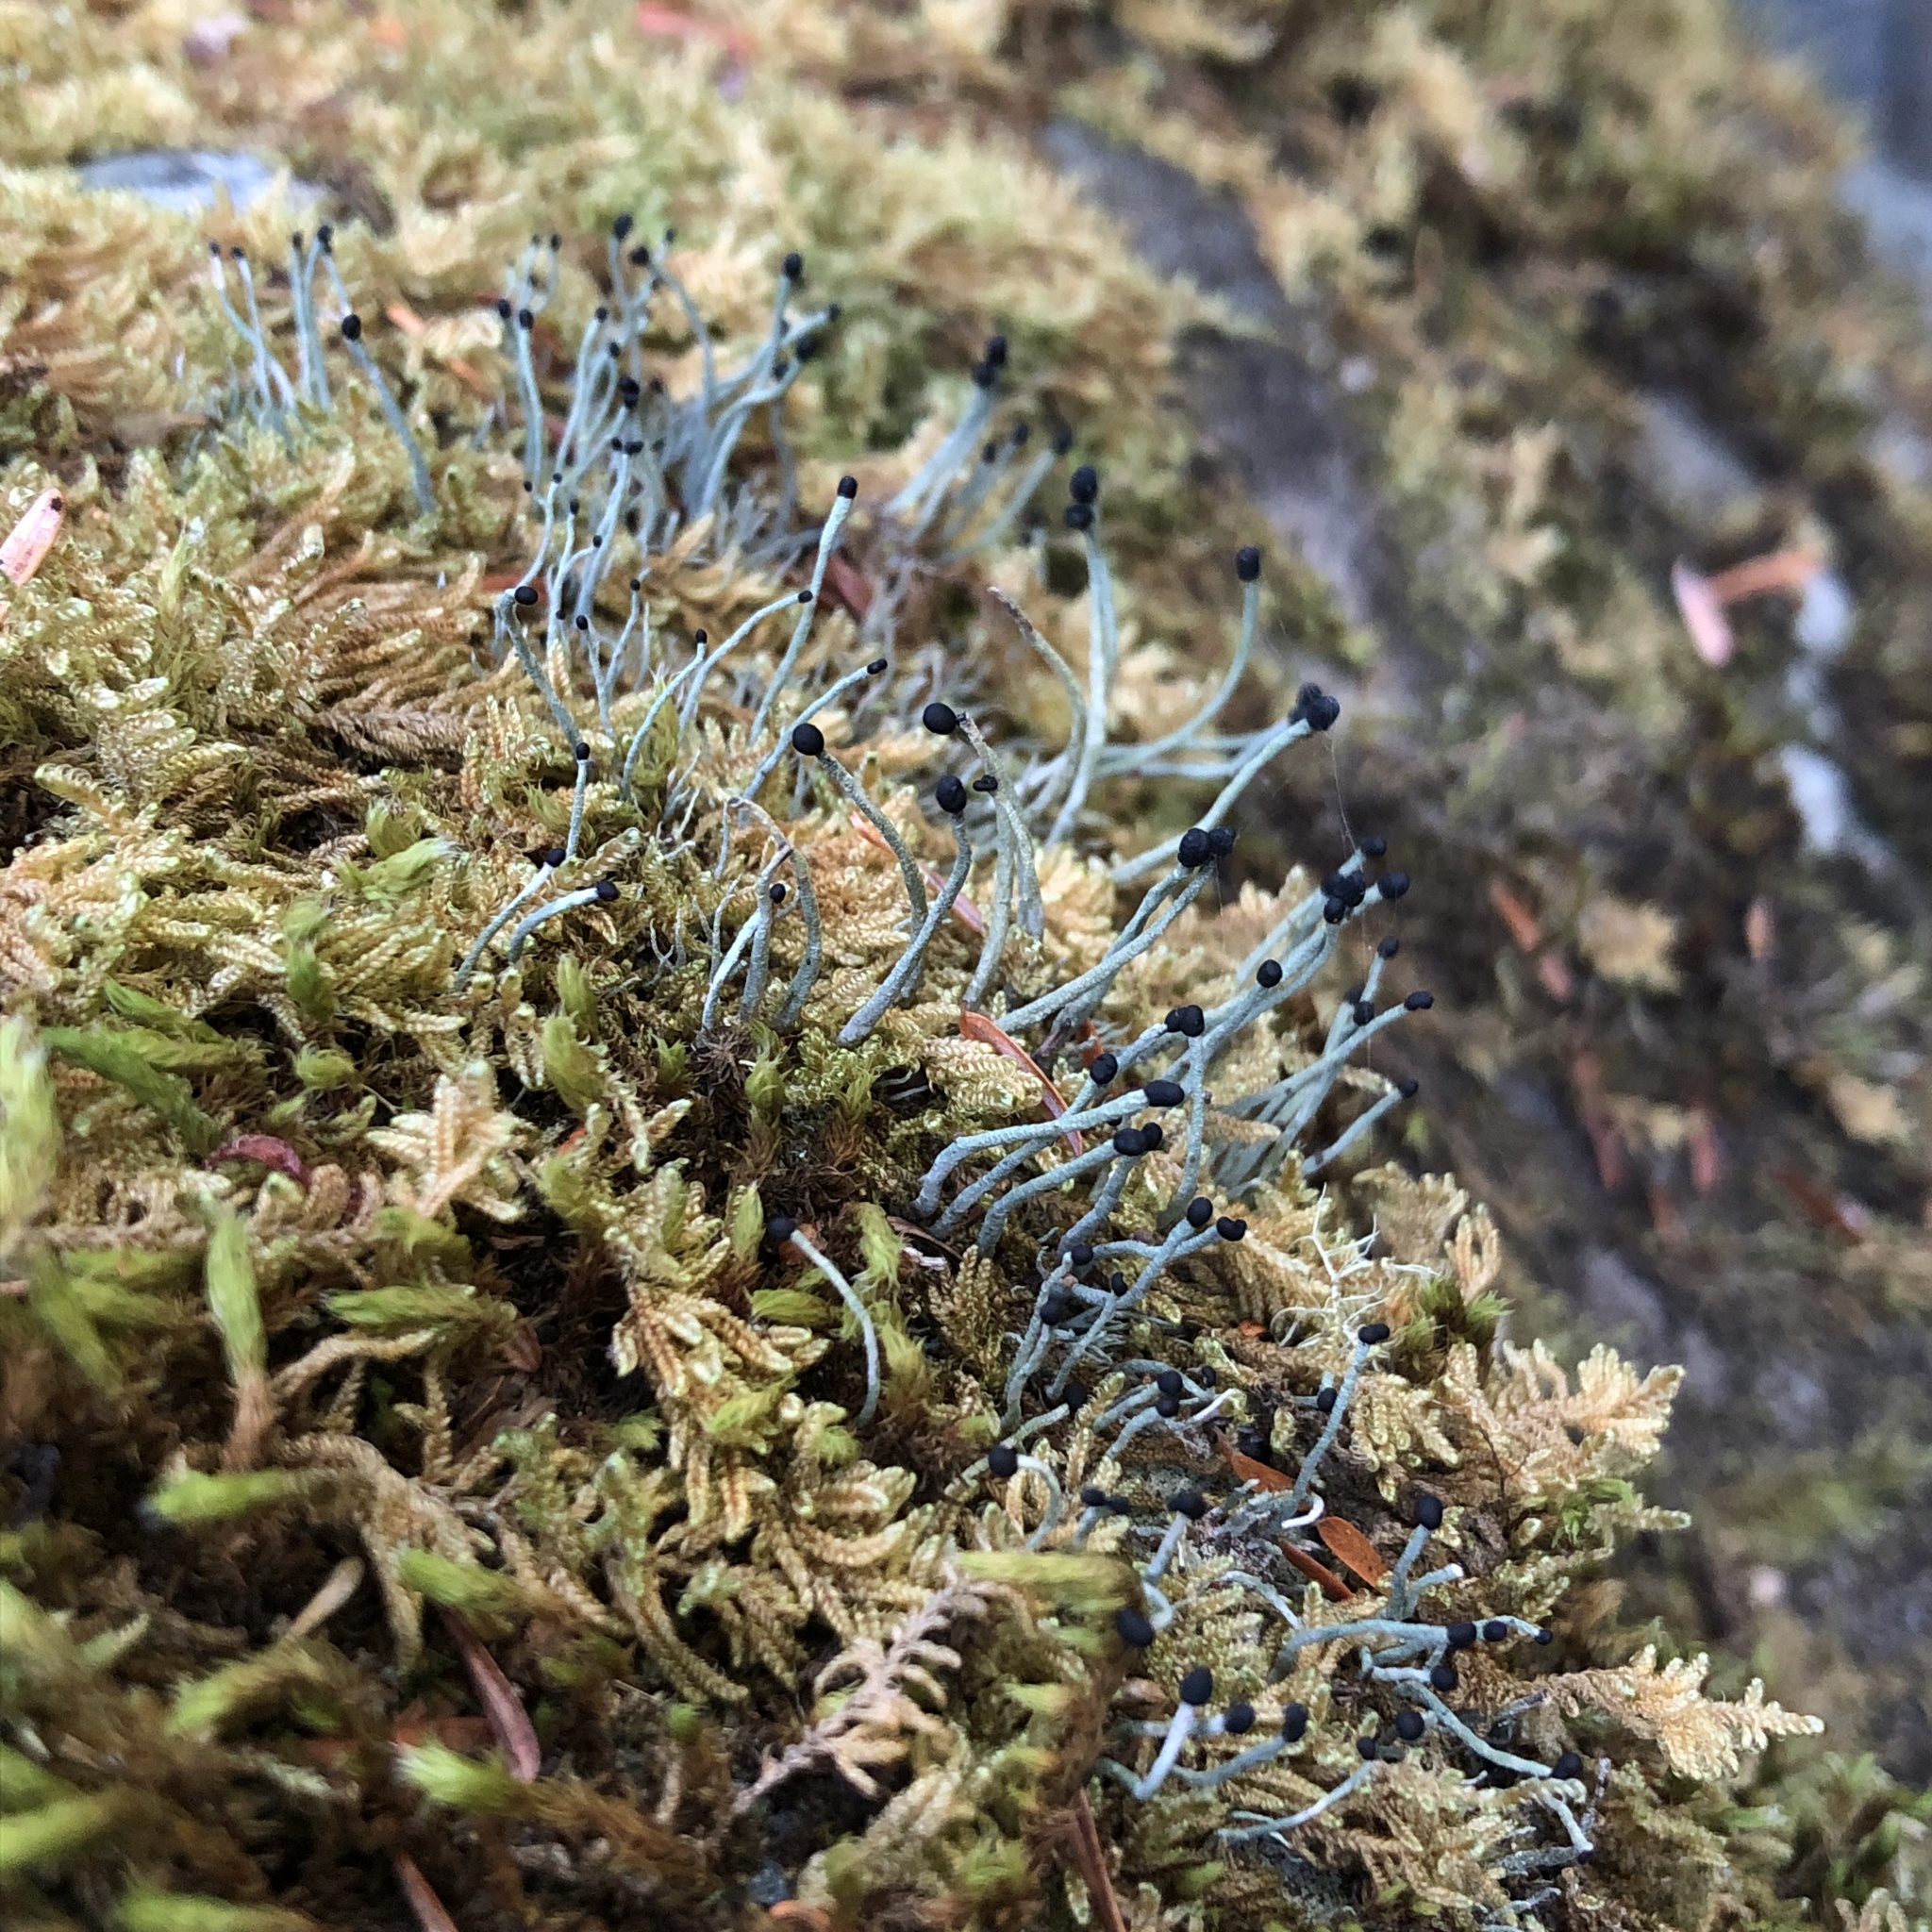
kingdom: Fungi
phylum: Ascomycota
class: Lecanoromycetes
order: Lecanorales
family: Cladoniaceae
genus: Pilophorus
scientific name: Pilophorus acicularis
